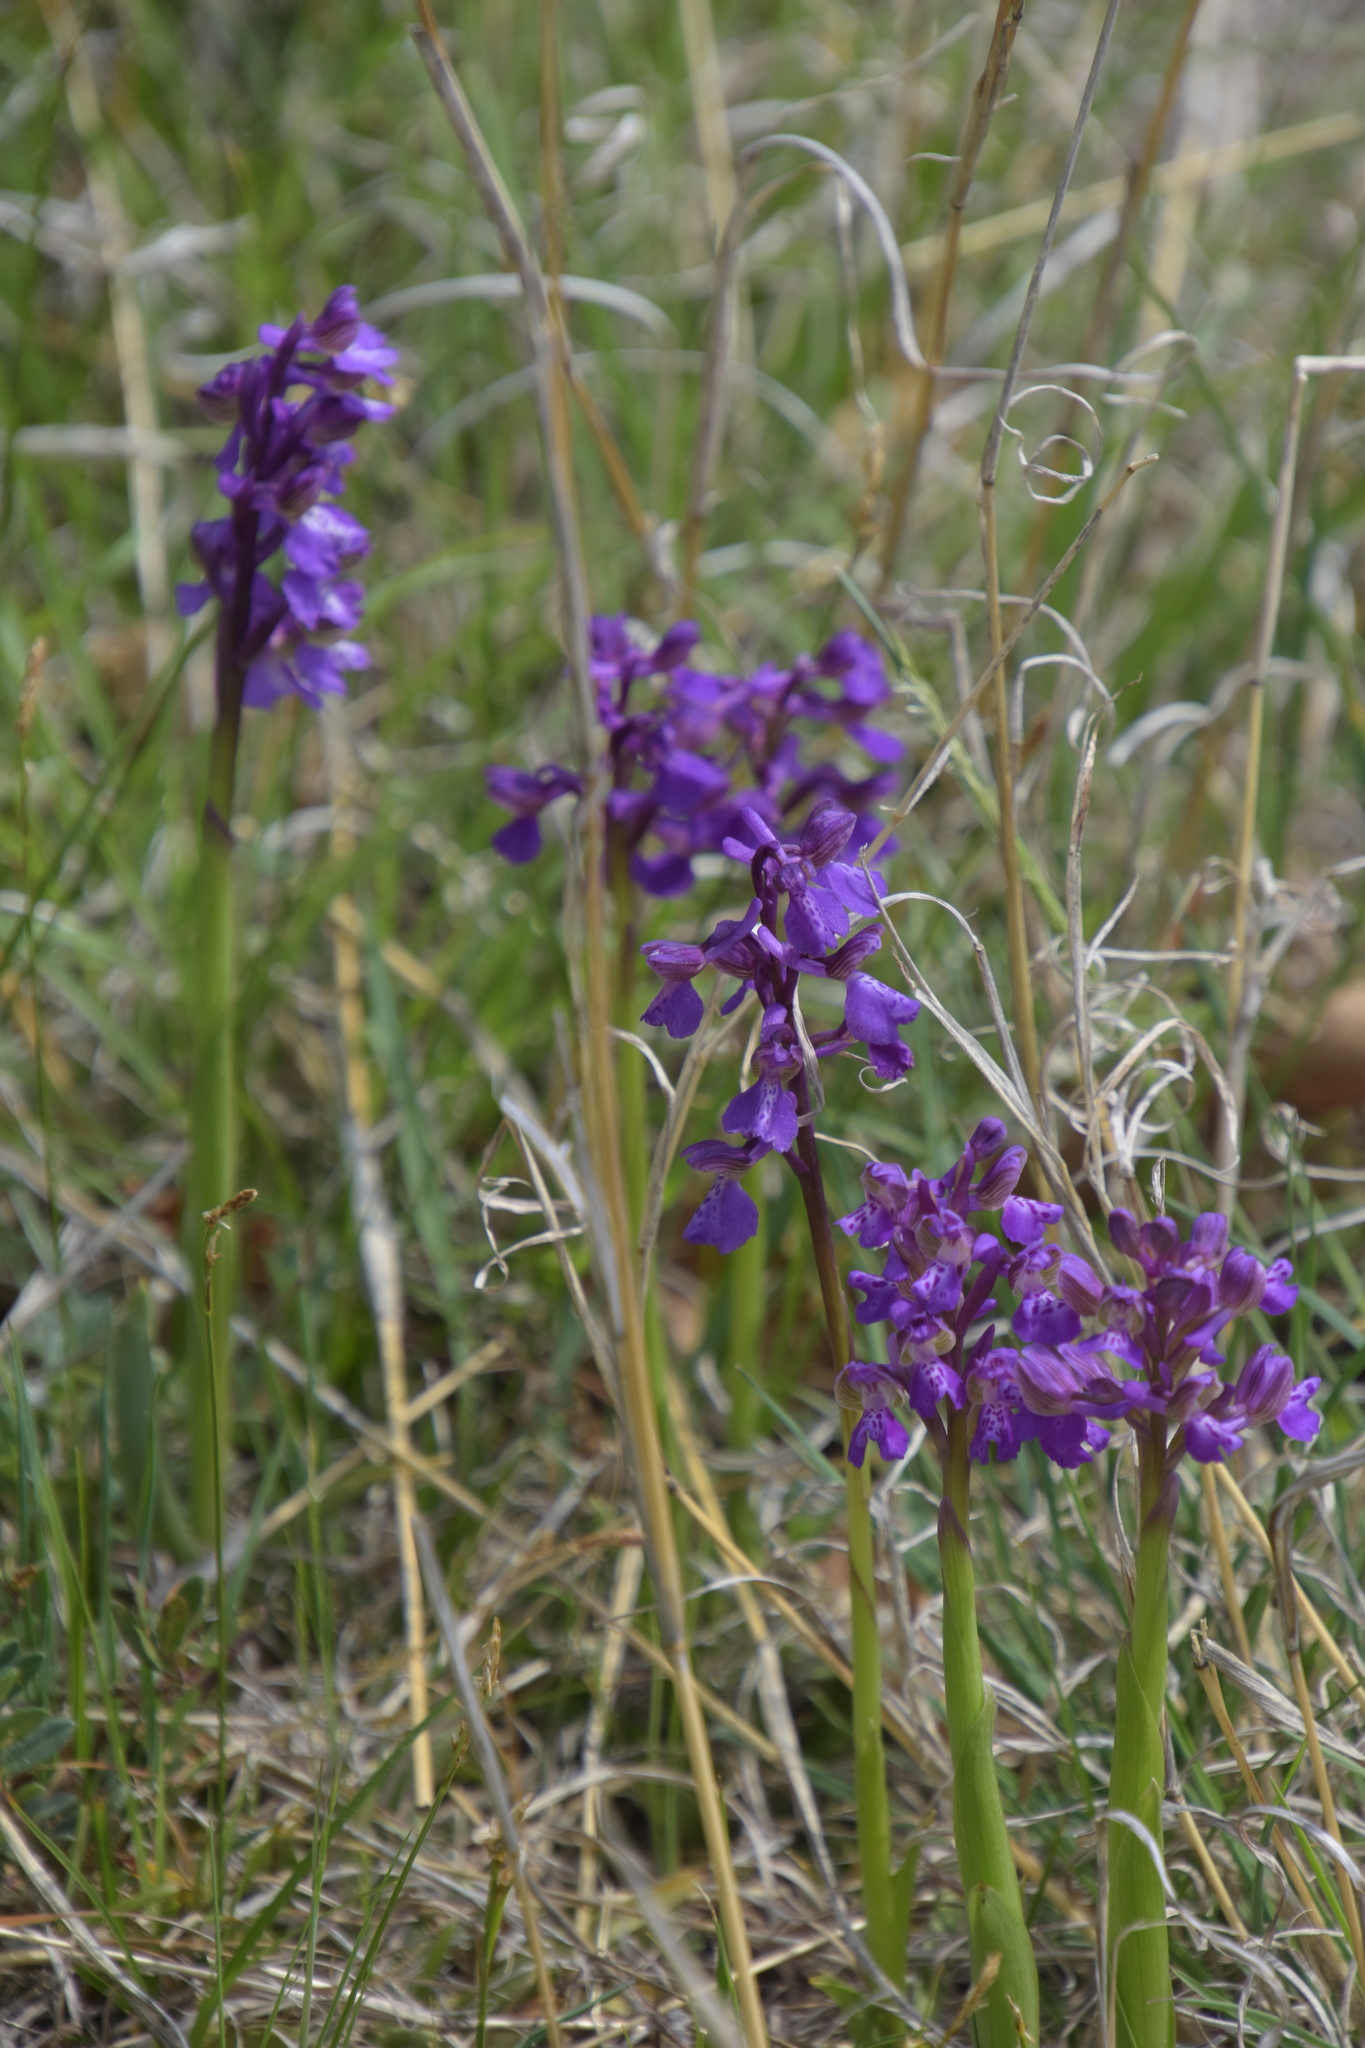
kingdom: Plantae
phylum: Tracheophyta
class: Liliopsida
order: Asparagales
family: Orchidaceae
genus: Anacamptis
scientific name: Anacamptis morio
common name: Green-winged orchid
